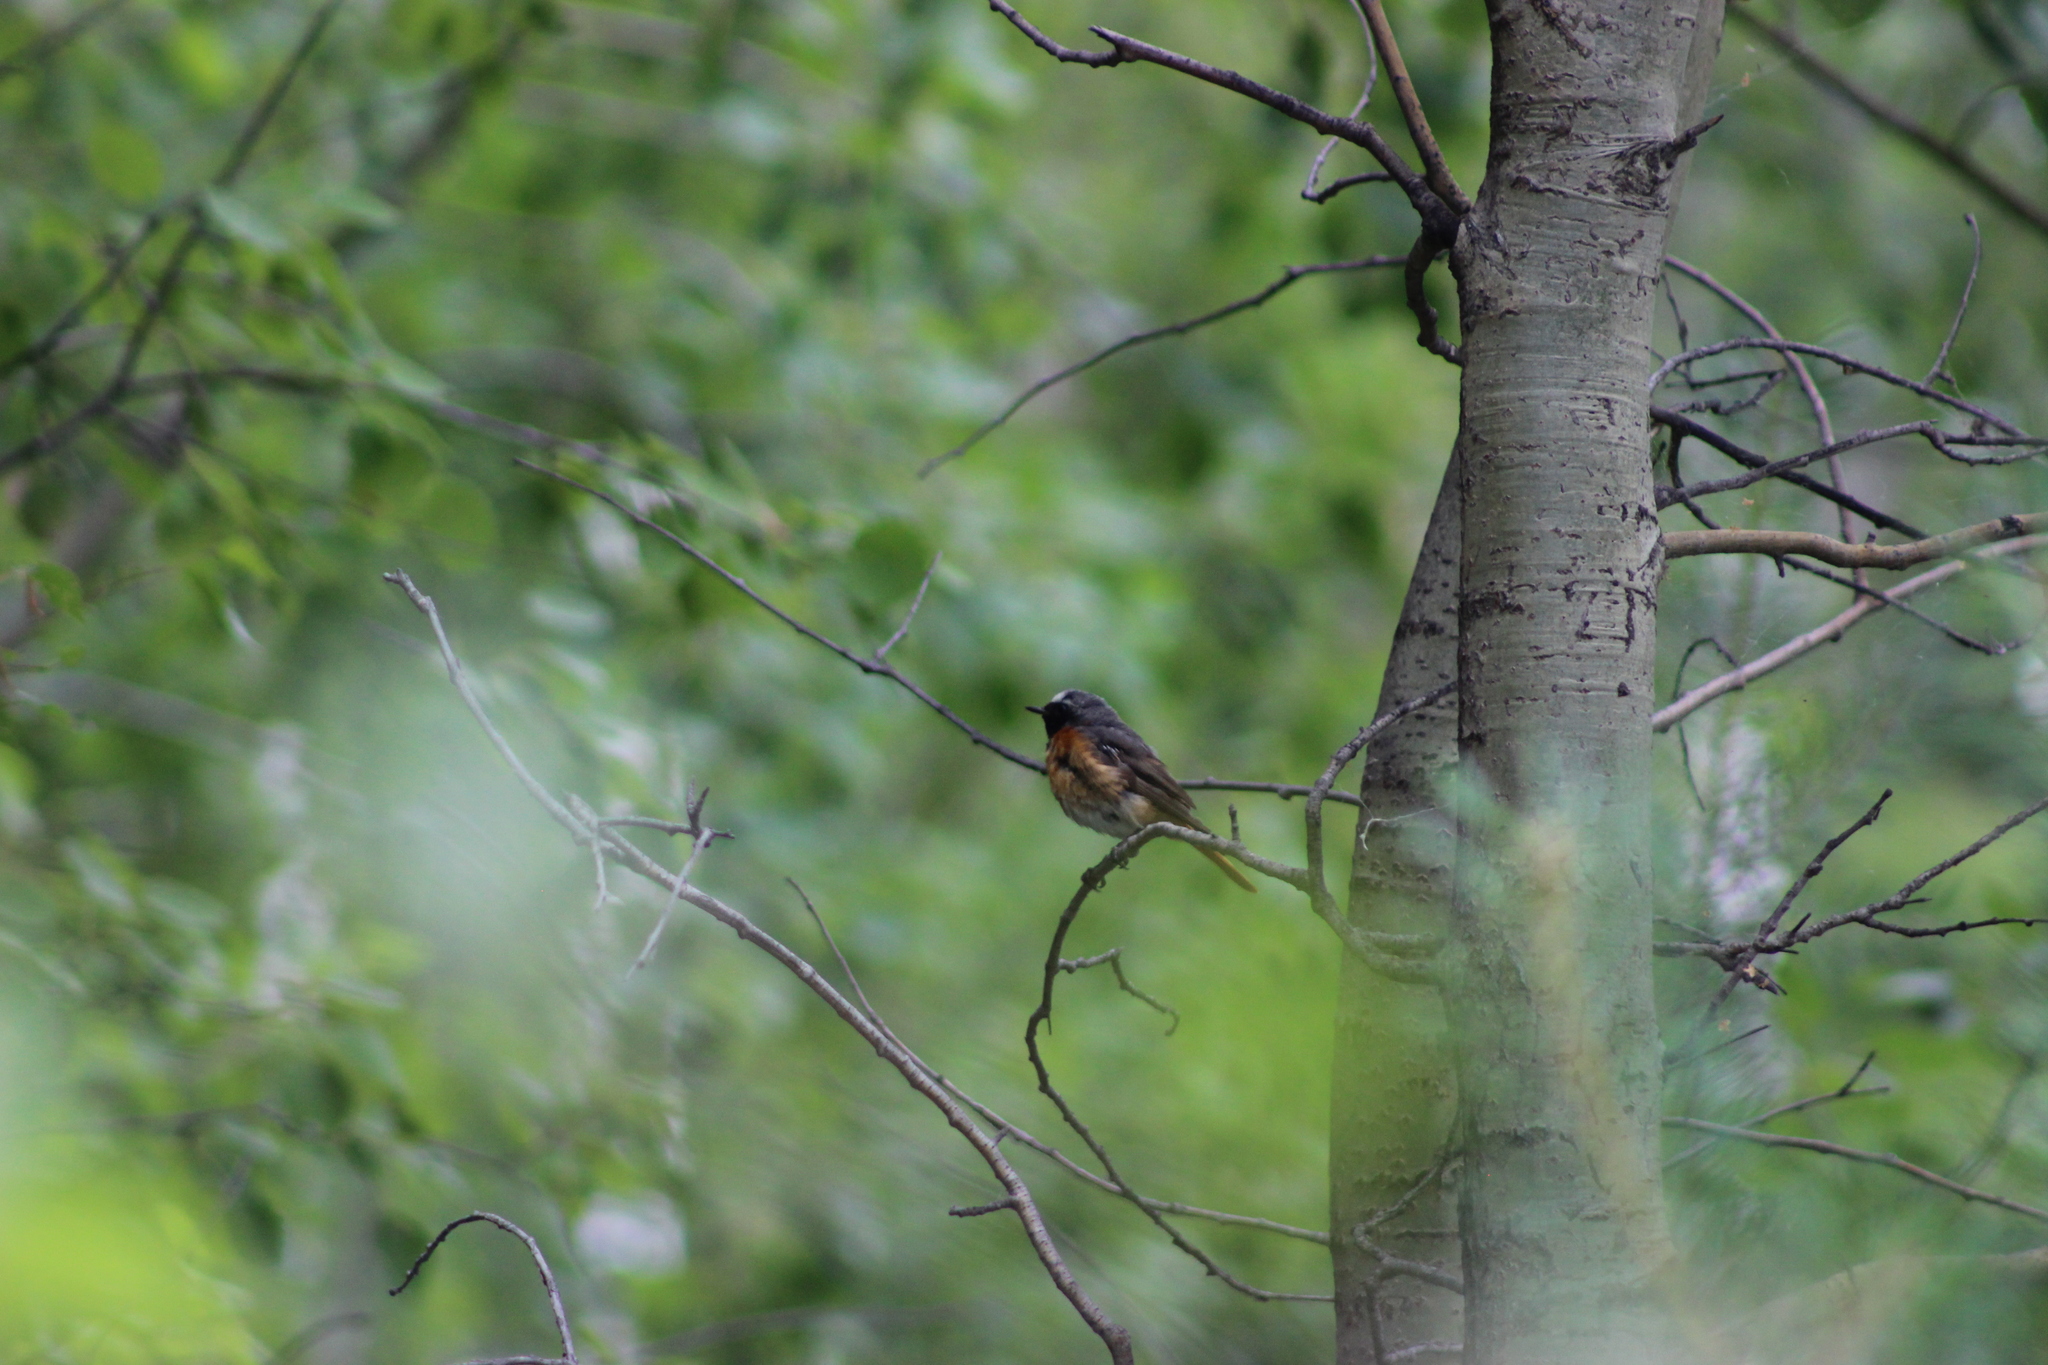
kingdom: Animalia
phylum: Chordata
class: Aves
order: Passeriformes
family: Muscicapidae
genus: Phoenicurus
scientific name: Phoenicurus phoenicurus
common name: Common redstart
